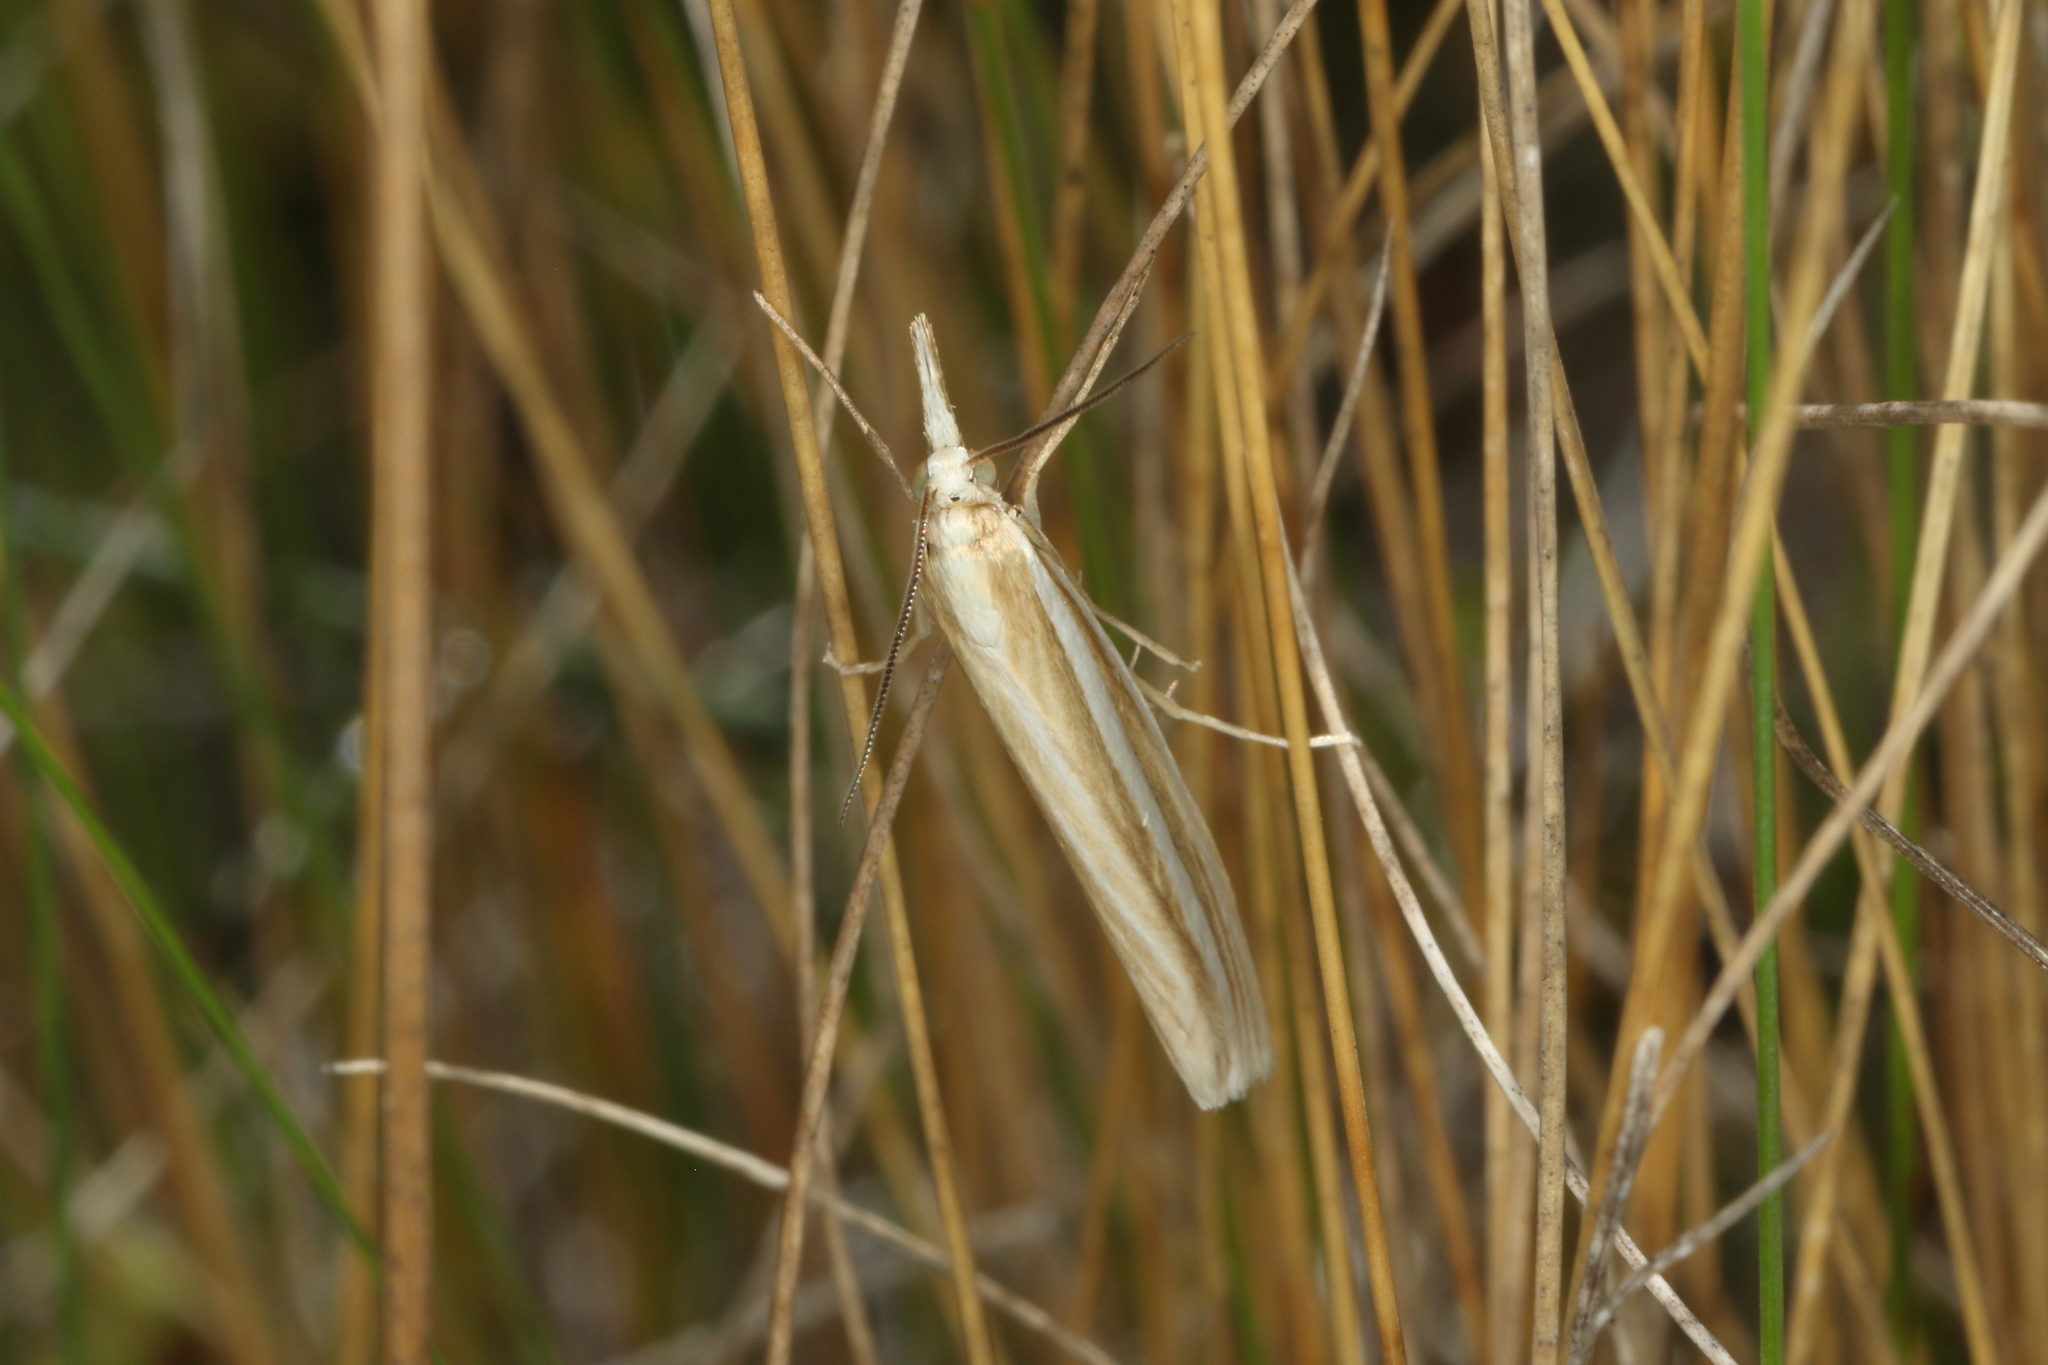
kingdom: Animalia
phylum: Arthropoda
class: Insecta
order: Lepidoptera
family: Crambidae
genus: Orocrambus
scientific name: Orocrambus ramosellus
